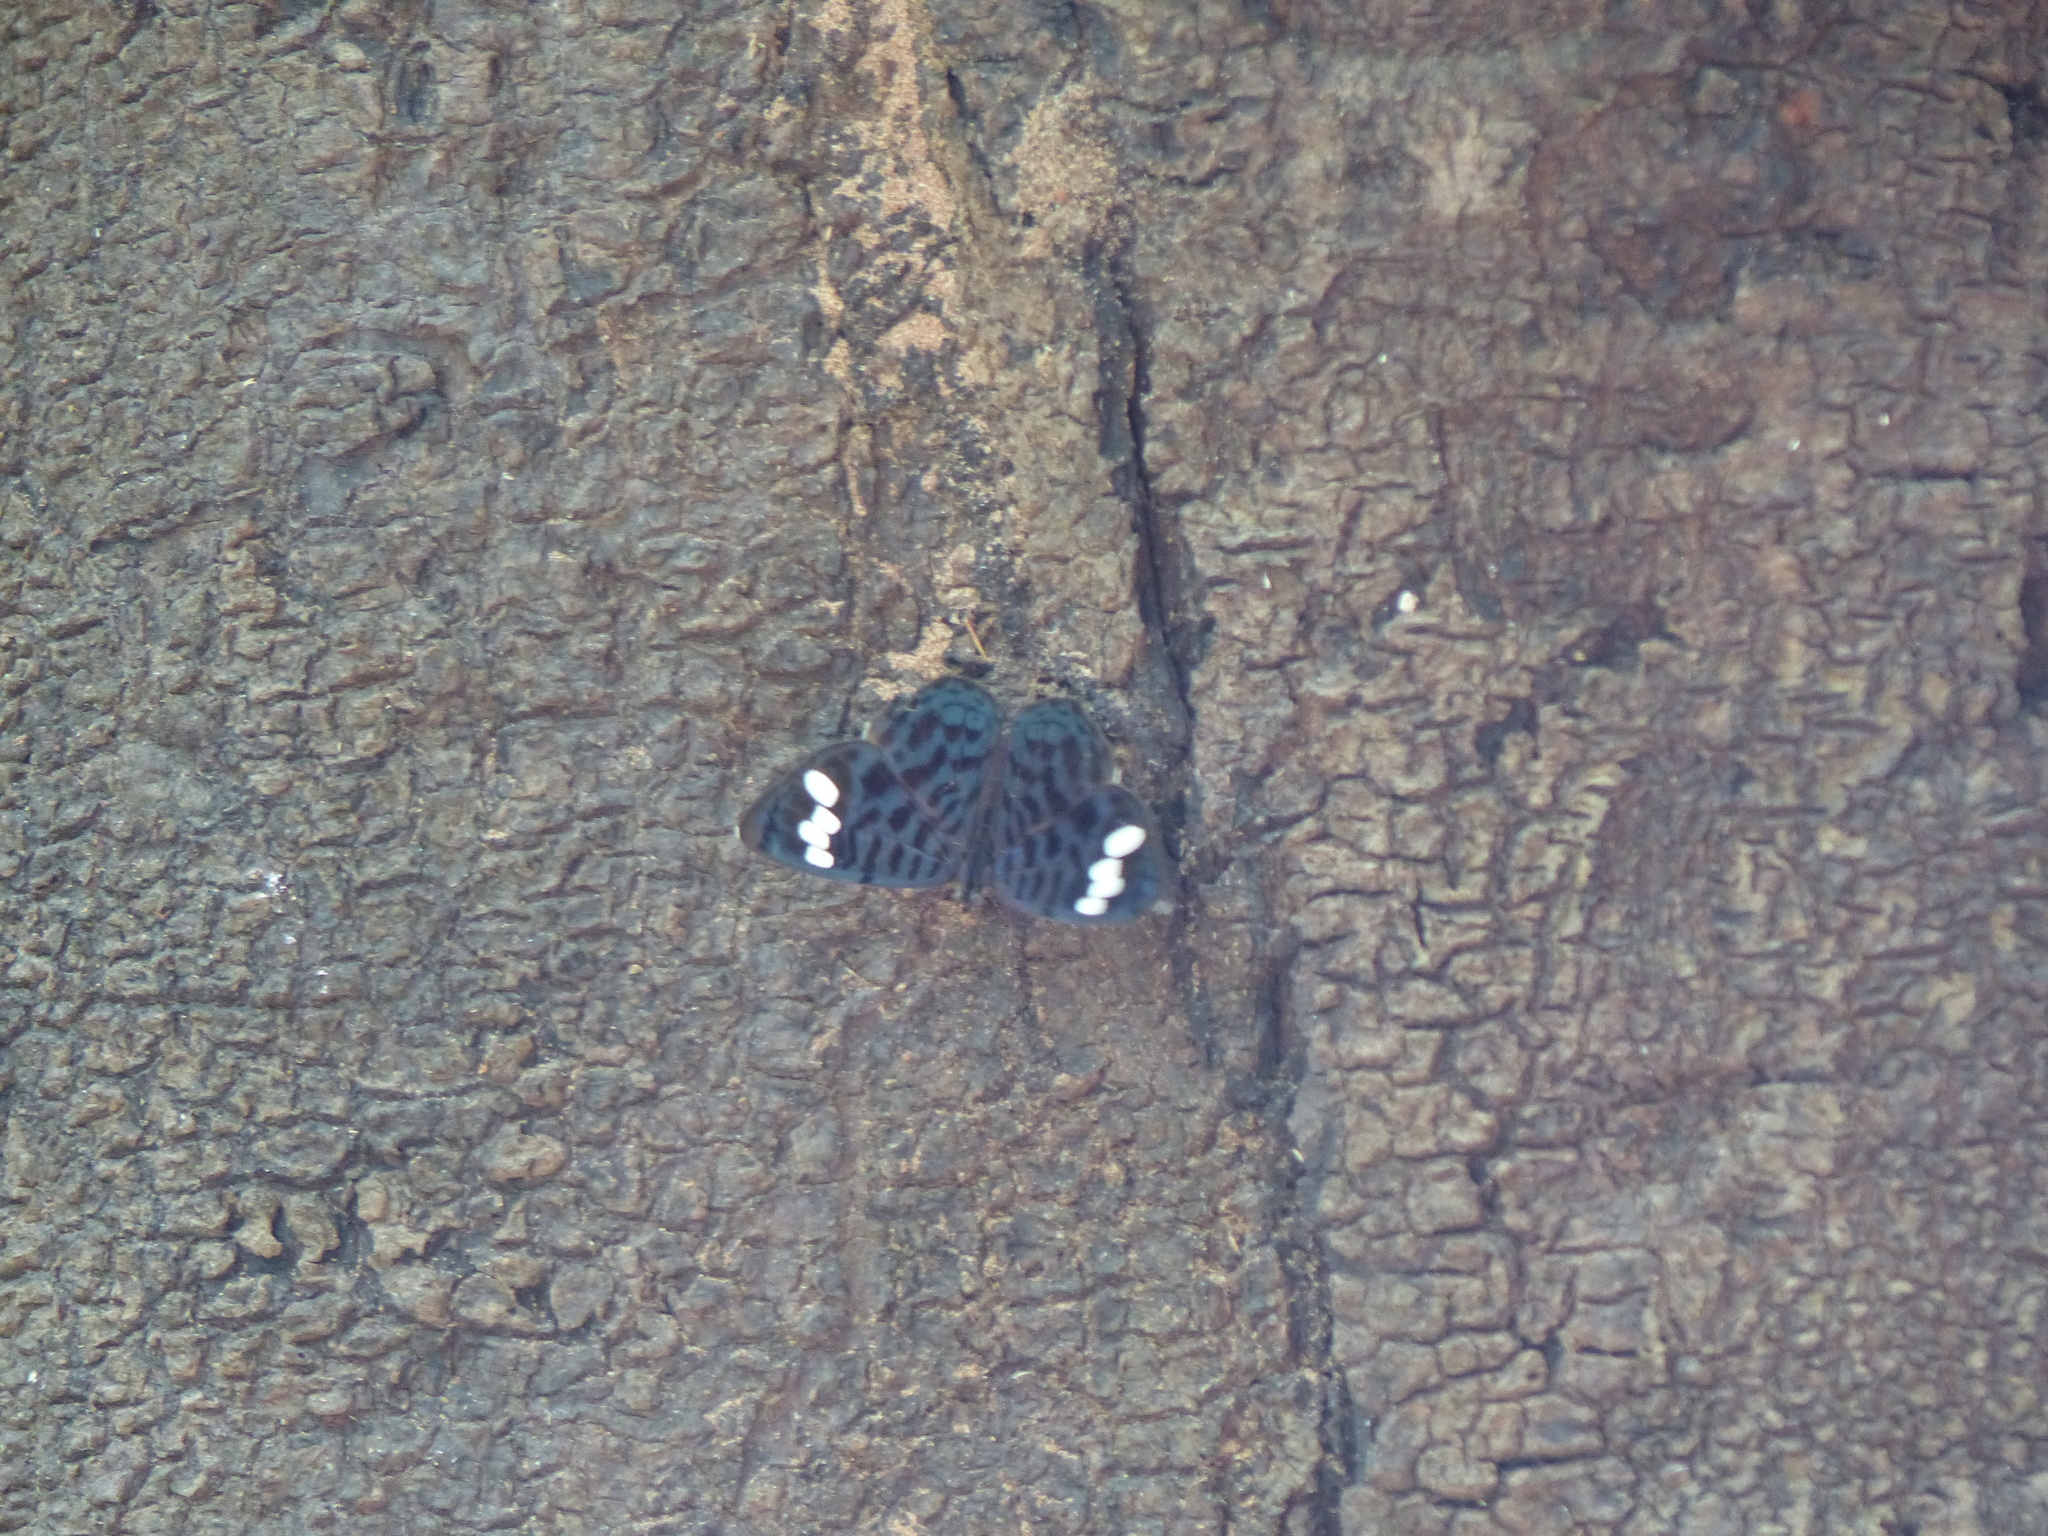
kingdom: Animalia
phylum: Arthropoda
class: Insecta
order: Lepidoptera
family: Nymphalidae
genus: Ectima
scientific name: Ectima iona
